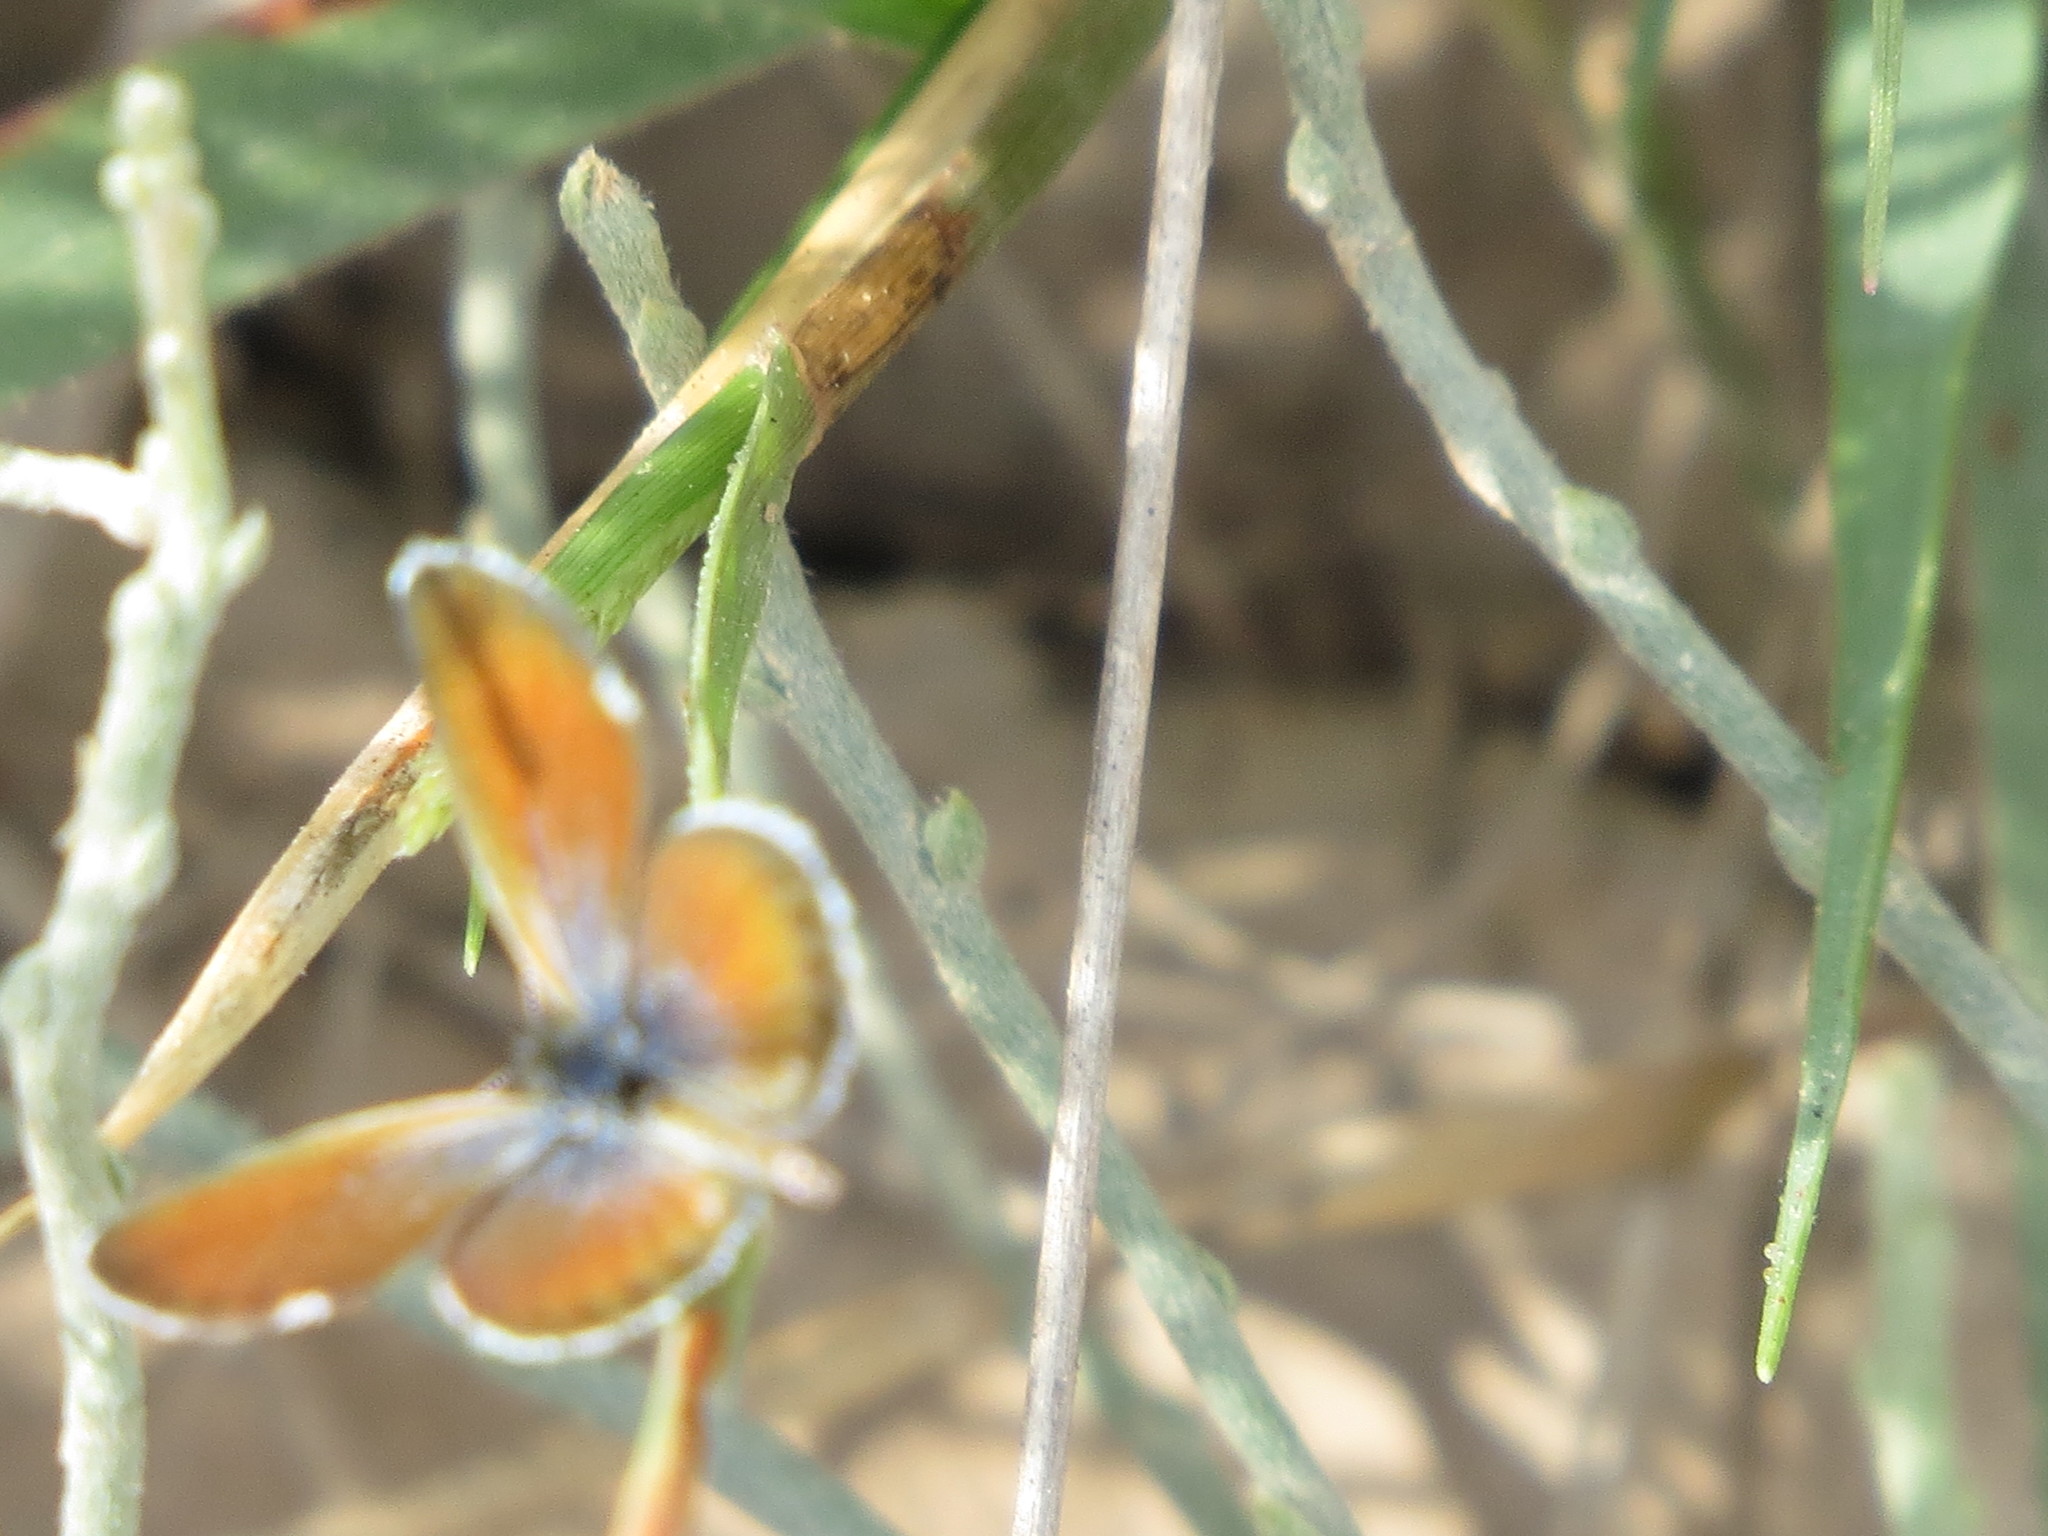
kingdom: Animalia
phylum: Arthropoda
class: Insecta
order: Lepidoptera
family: Lycaenidae
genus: Brephidium
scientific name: Brephidium exilis
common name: Pygmy blue
